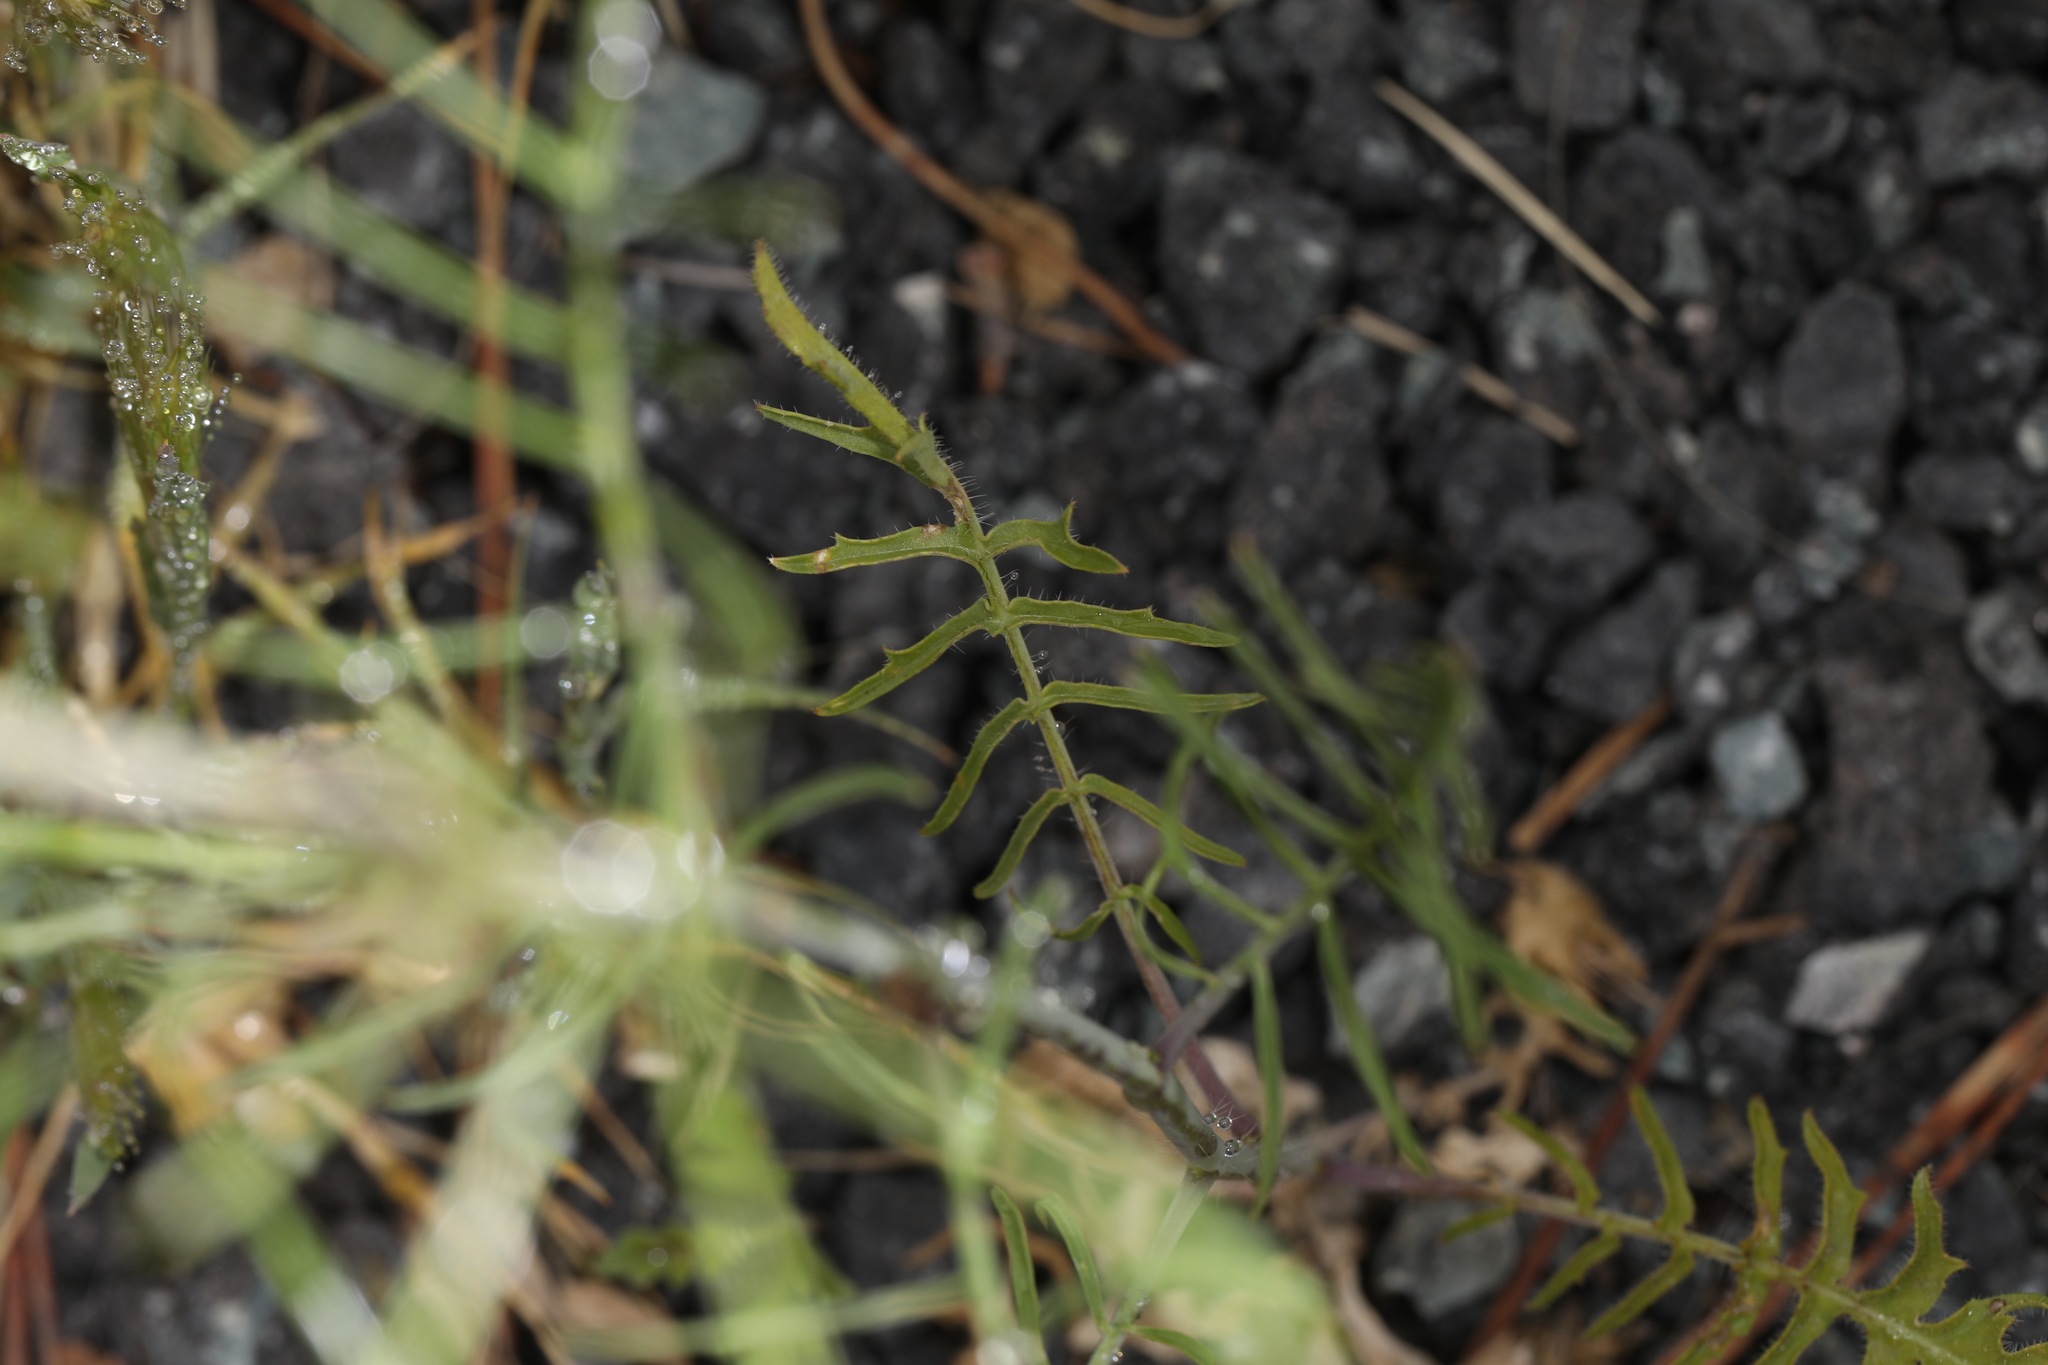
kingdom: Plantae
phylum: Tracheophyta
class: Magnoliopsida
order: Brassicales
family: Brassicaceae
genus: Sisymbrium
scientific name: Sisymbrium altissimum
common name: Tall rocket
